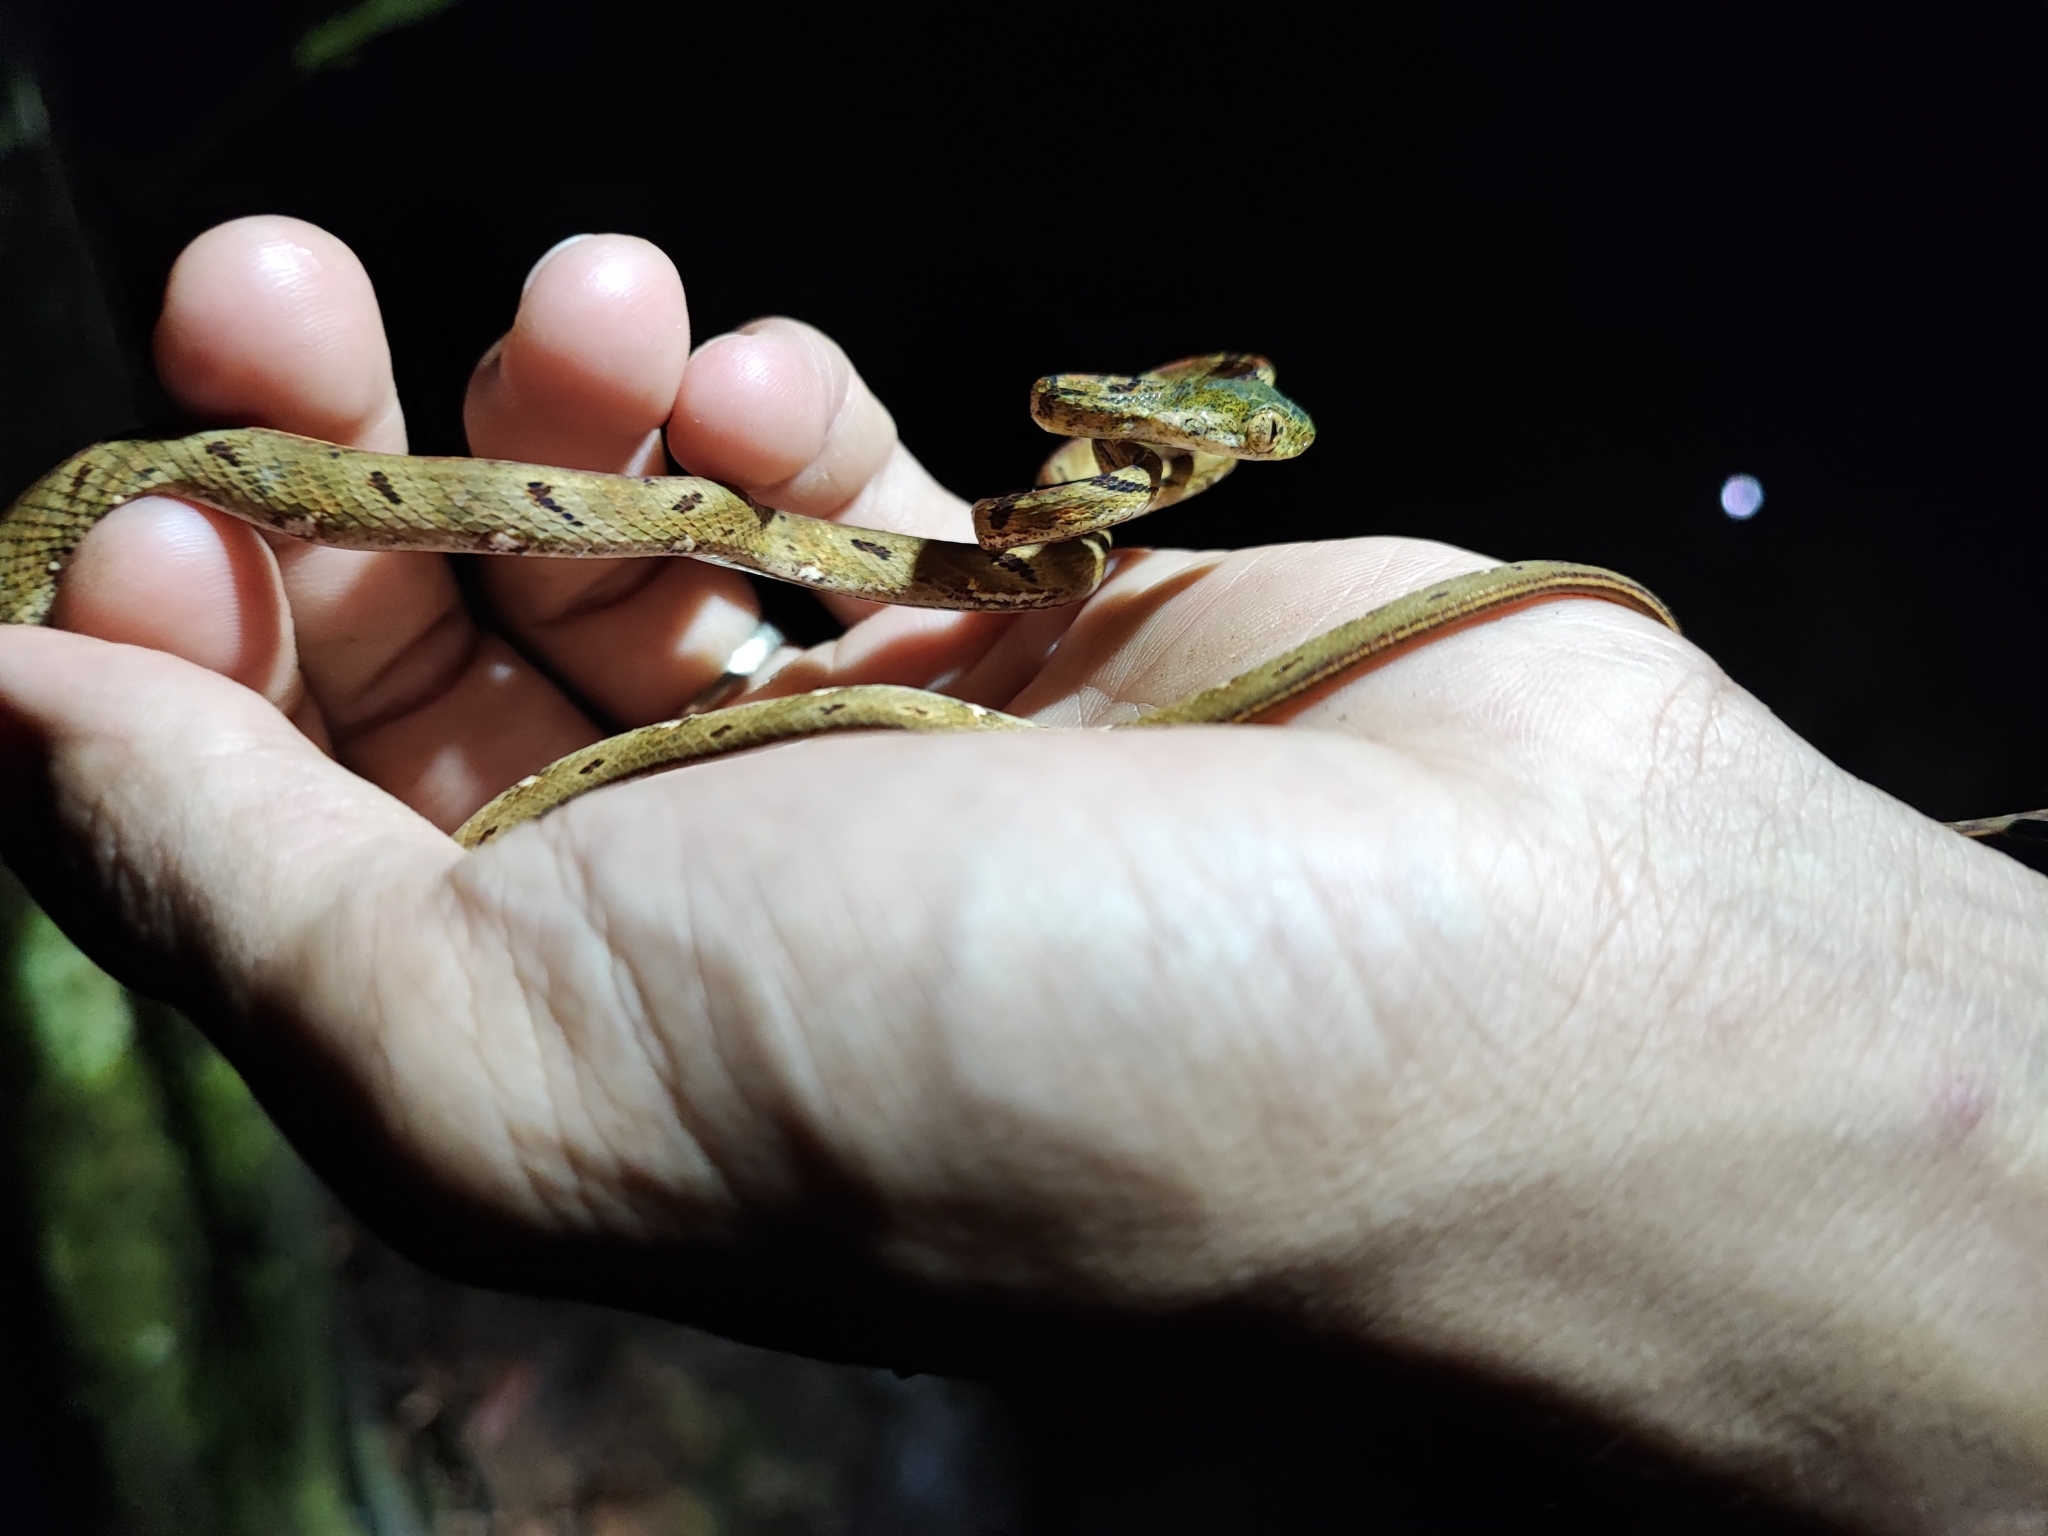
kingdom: Animalia
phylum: Chordata
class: Squamata
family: Colubridae
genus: Boiga
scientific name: Boiga bengkuluensis
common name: Bengkulu cat snake
